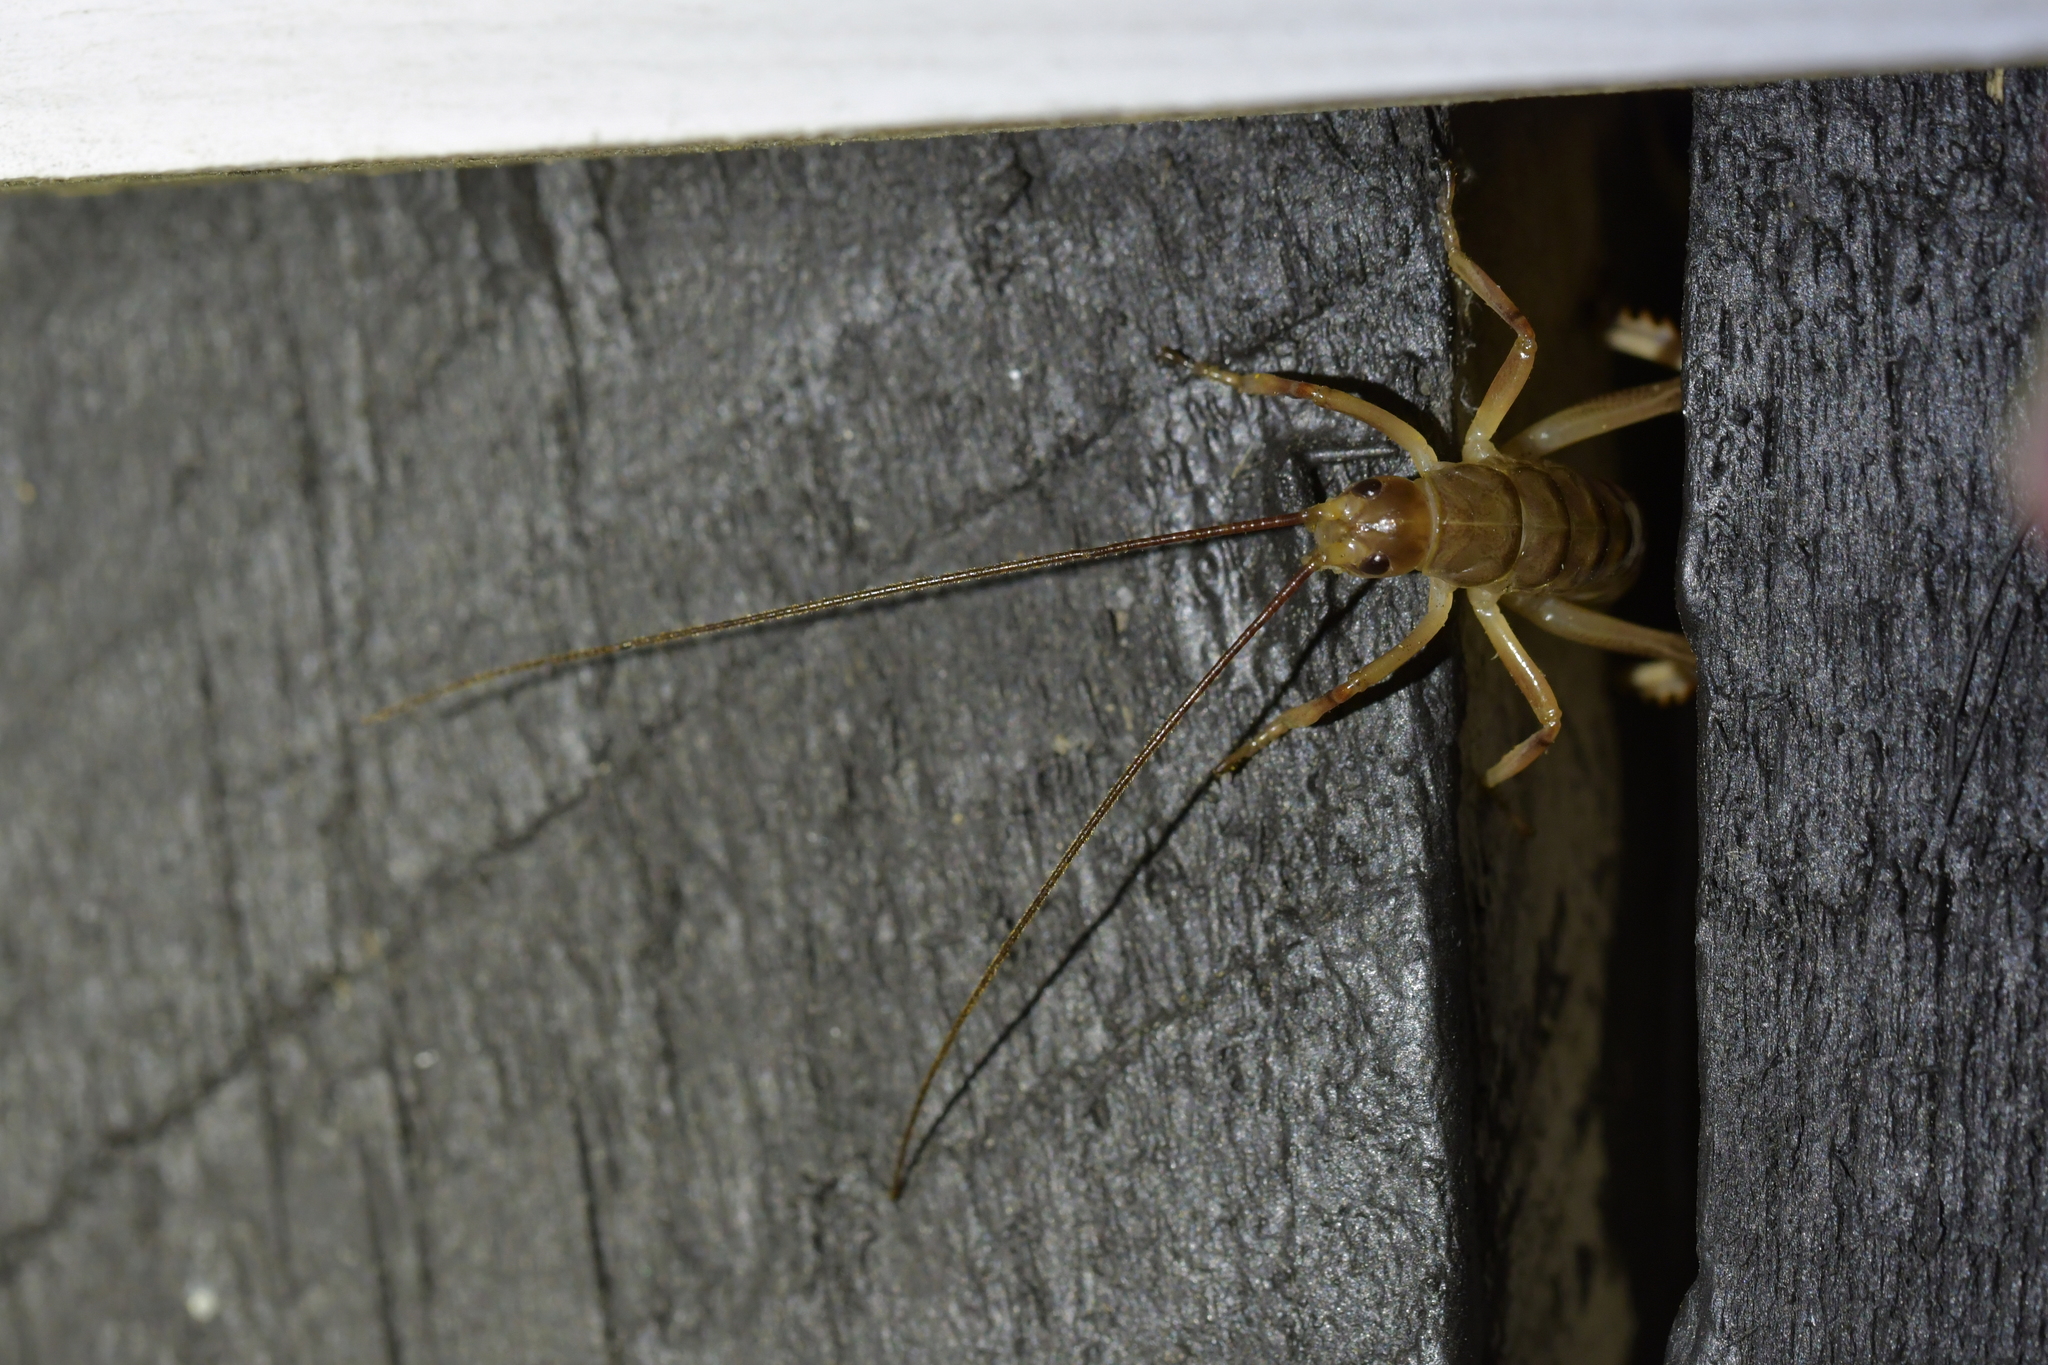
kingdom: Animalia
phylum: Arthropoda
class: Insecta
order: Orthoptera
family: Anostostomatidae
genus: Hemideina
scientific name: Hemideina crassidens
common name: Wellington tree weta
